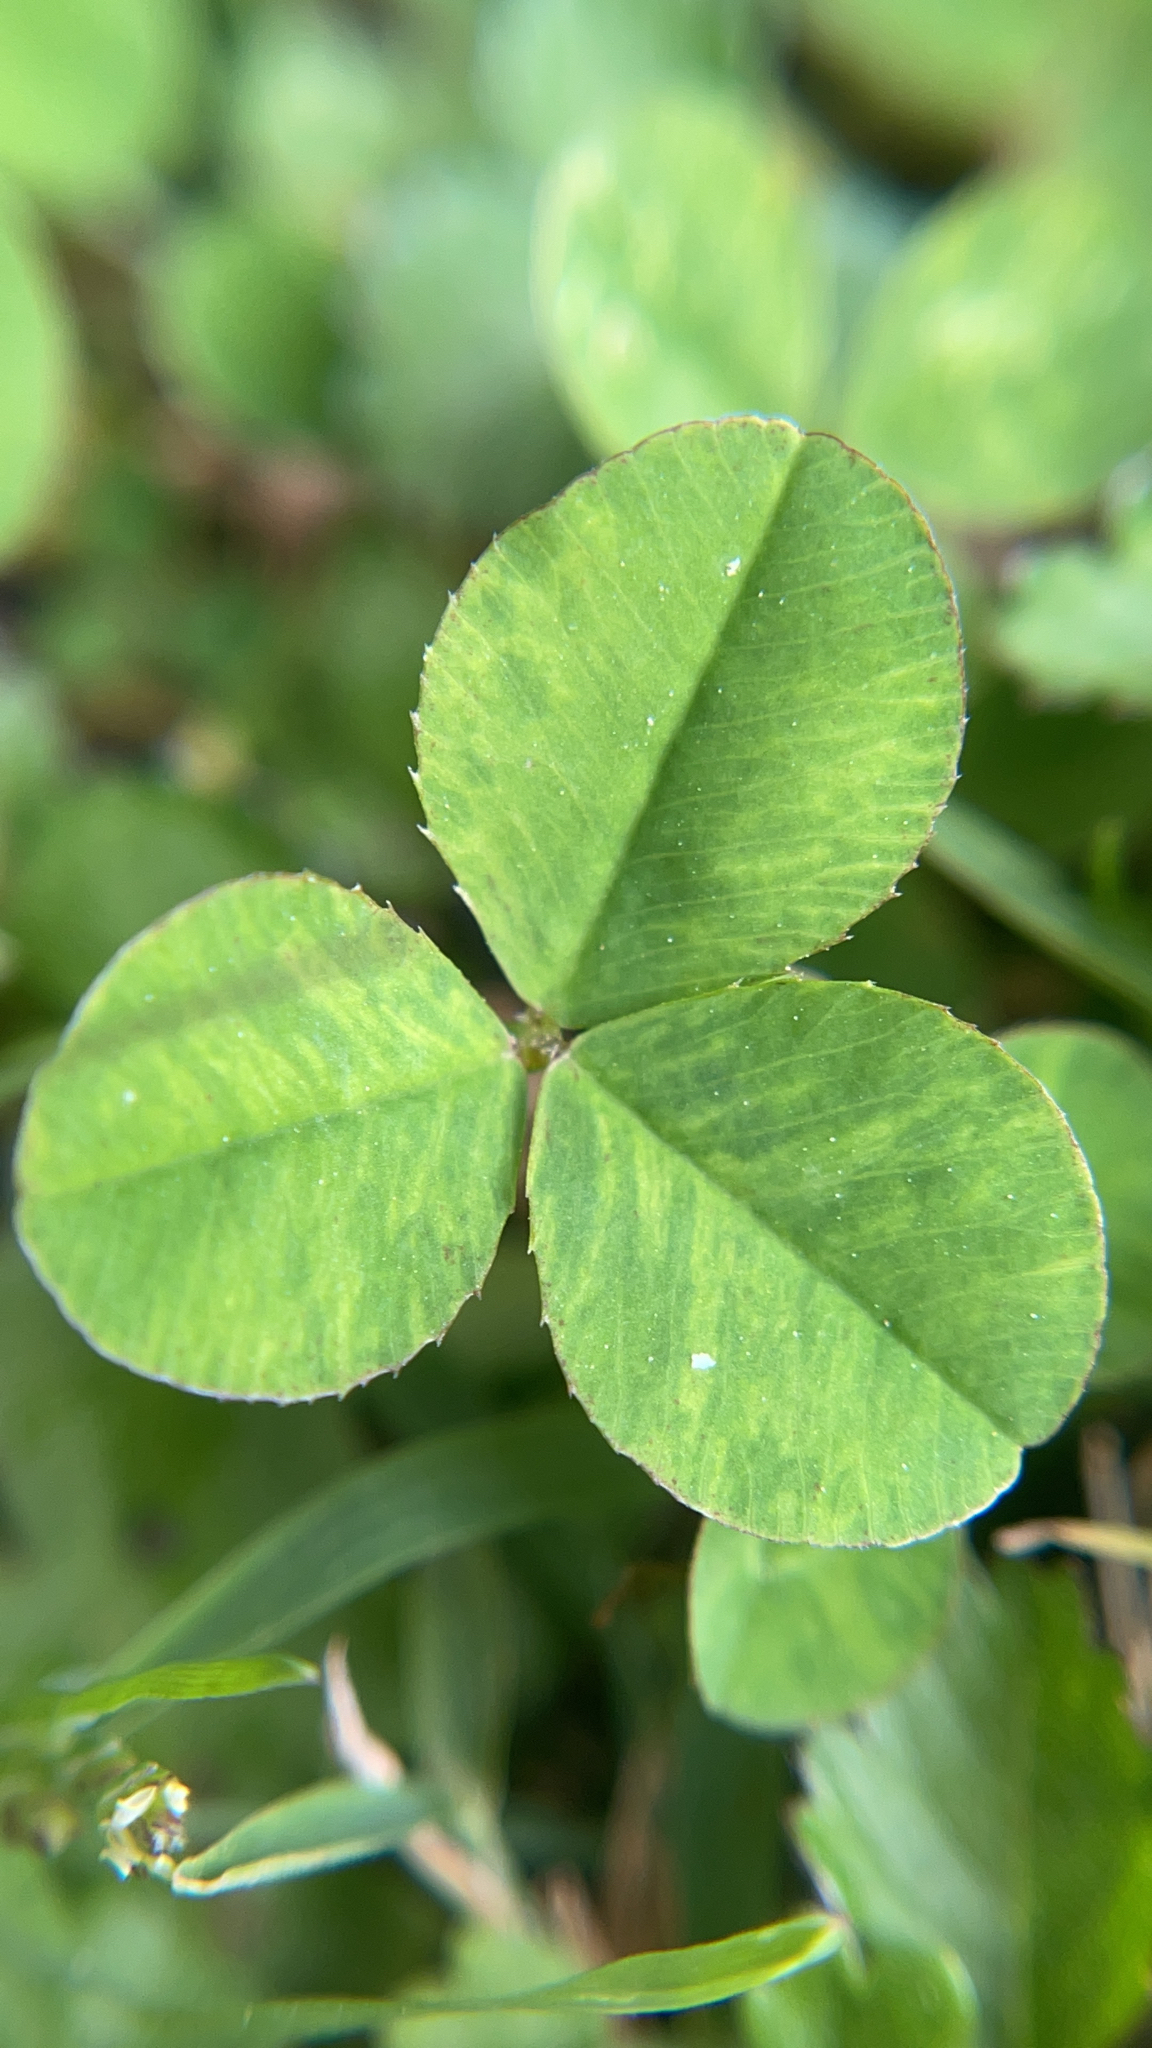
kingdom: Plantae
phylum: Tracheophyta
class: Magnoliopsida
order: Fabales
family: Fabaceae
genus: Trifolium
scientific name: Trifolium repens
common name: White clover
